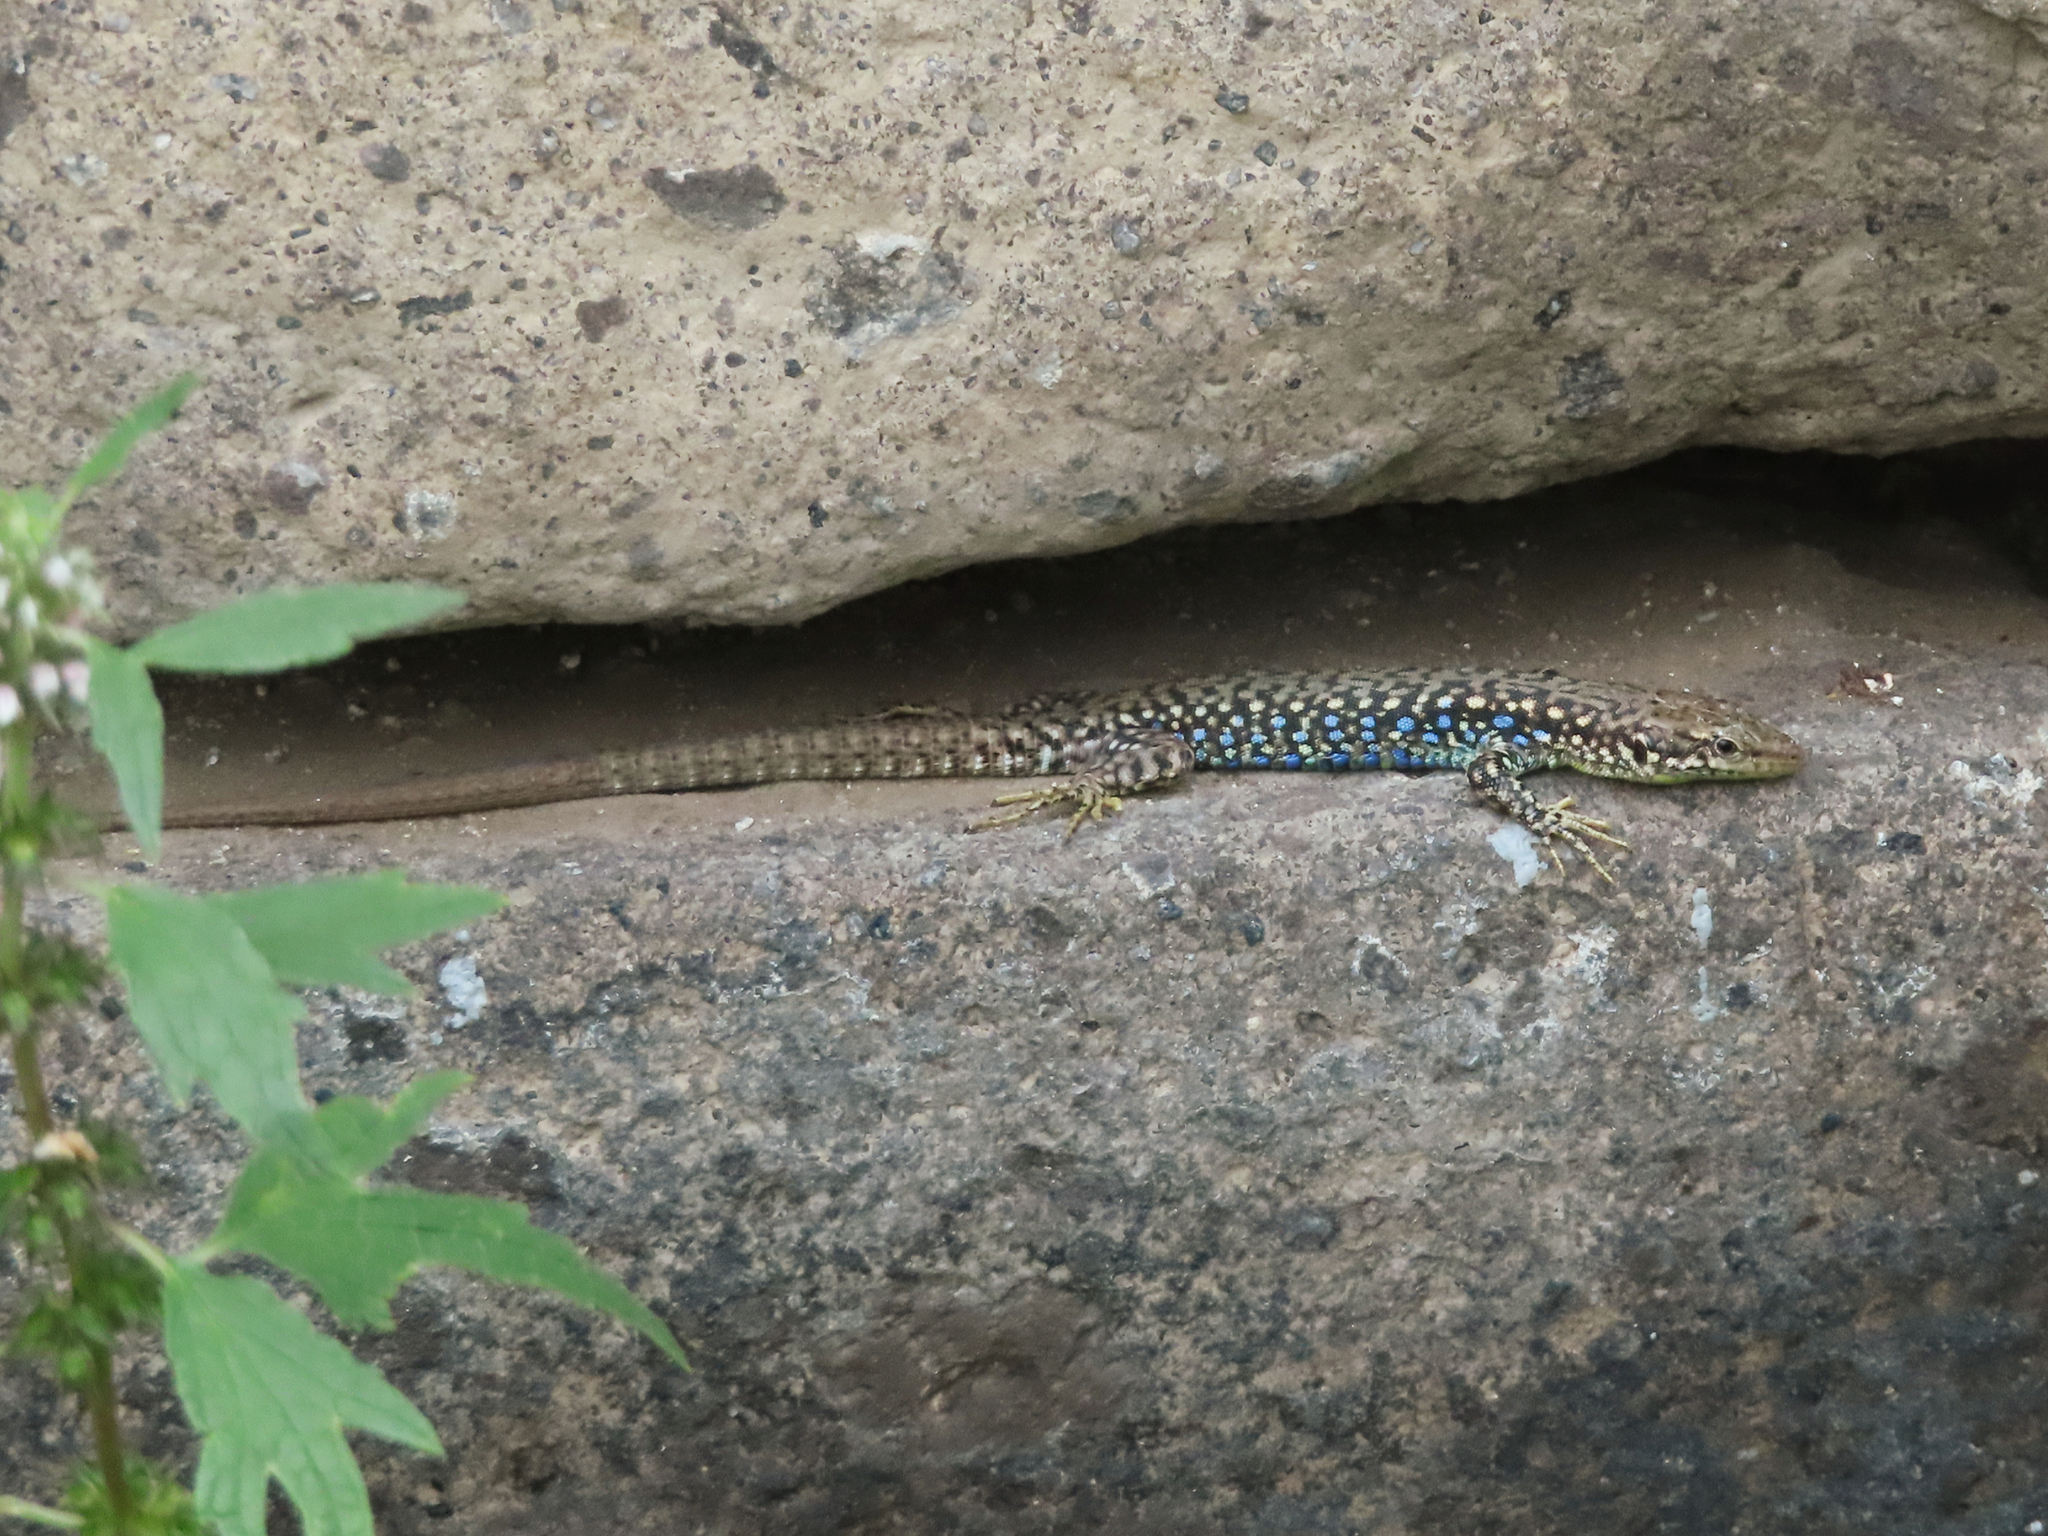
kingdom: Animalia
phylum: Chordata
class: Squamata
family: Lacertidae
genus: Darevskia
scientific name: Darevskia
